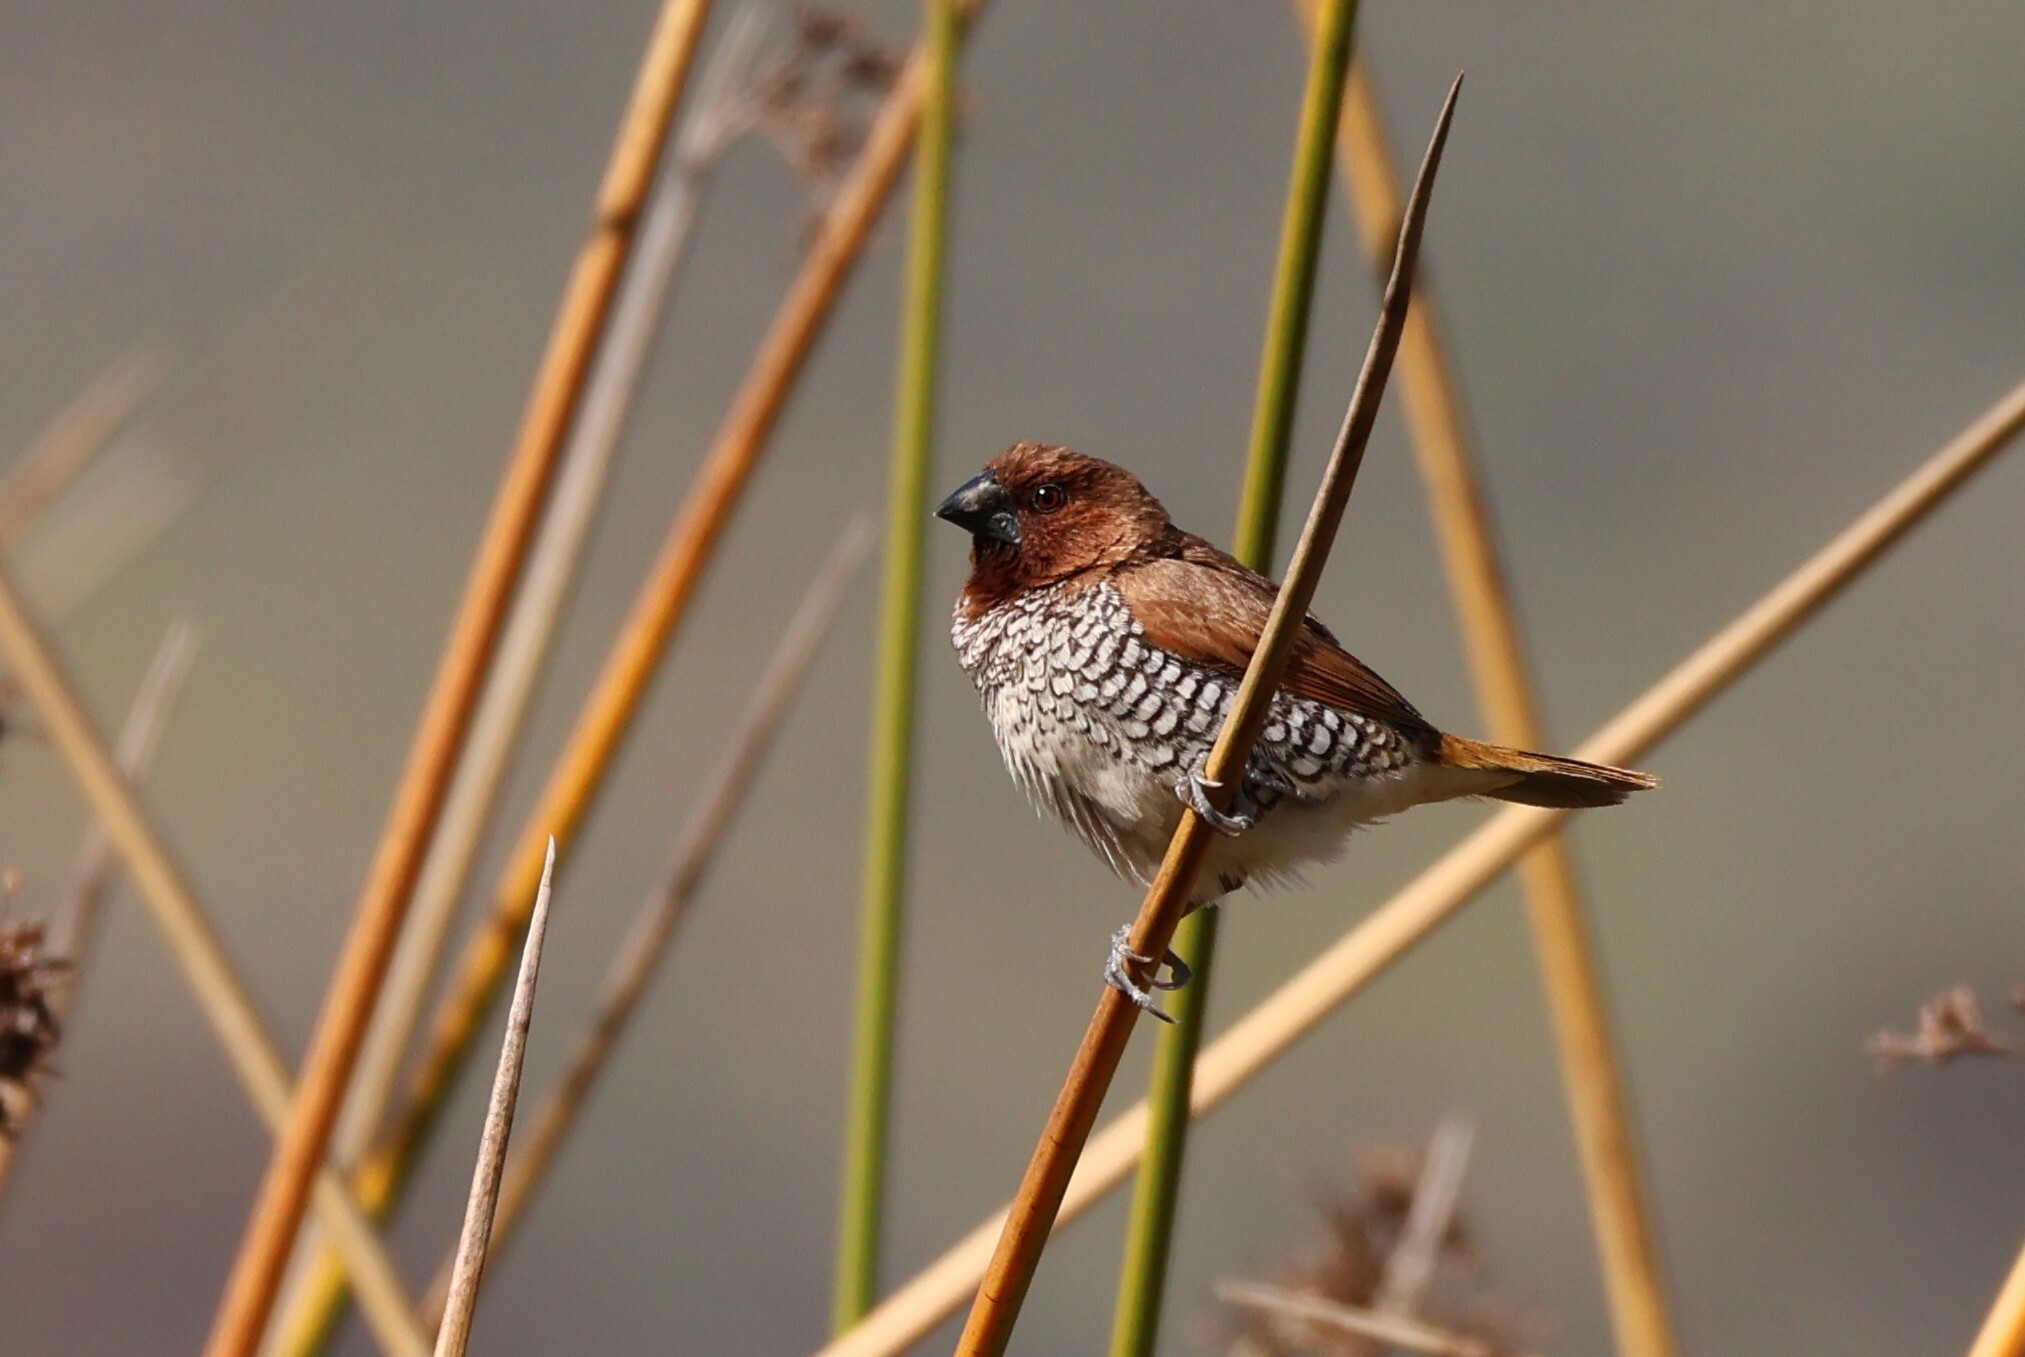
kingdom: Animalia
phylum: Chordata
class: Aves
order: Passeriformes
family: Estrildidae
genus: Lonchura
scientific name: Lonchura punctulata
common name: Scaly-breasted munia
